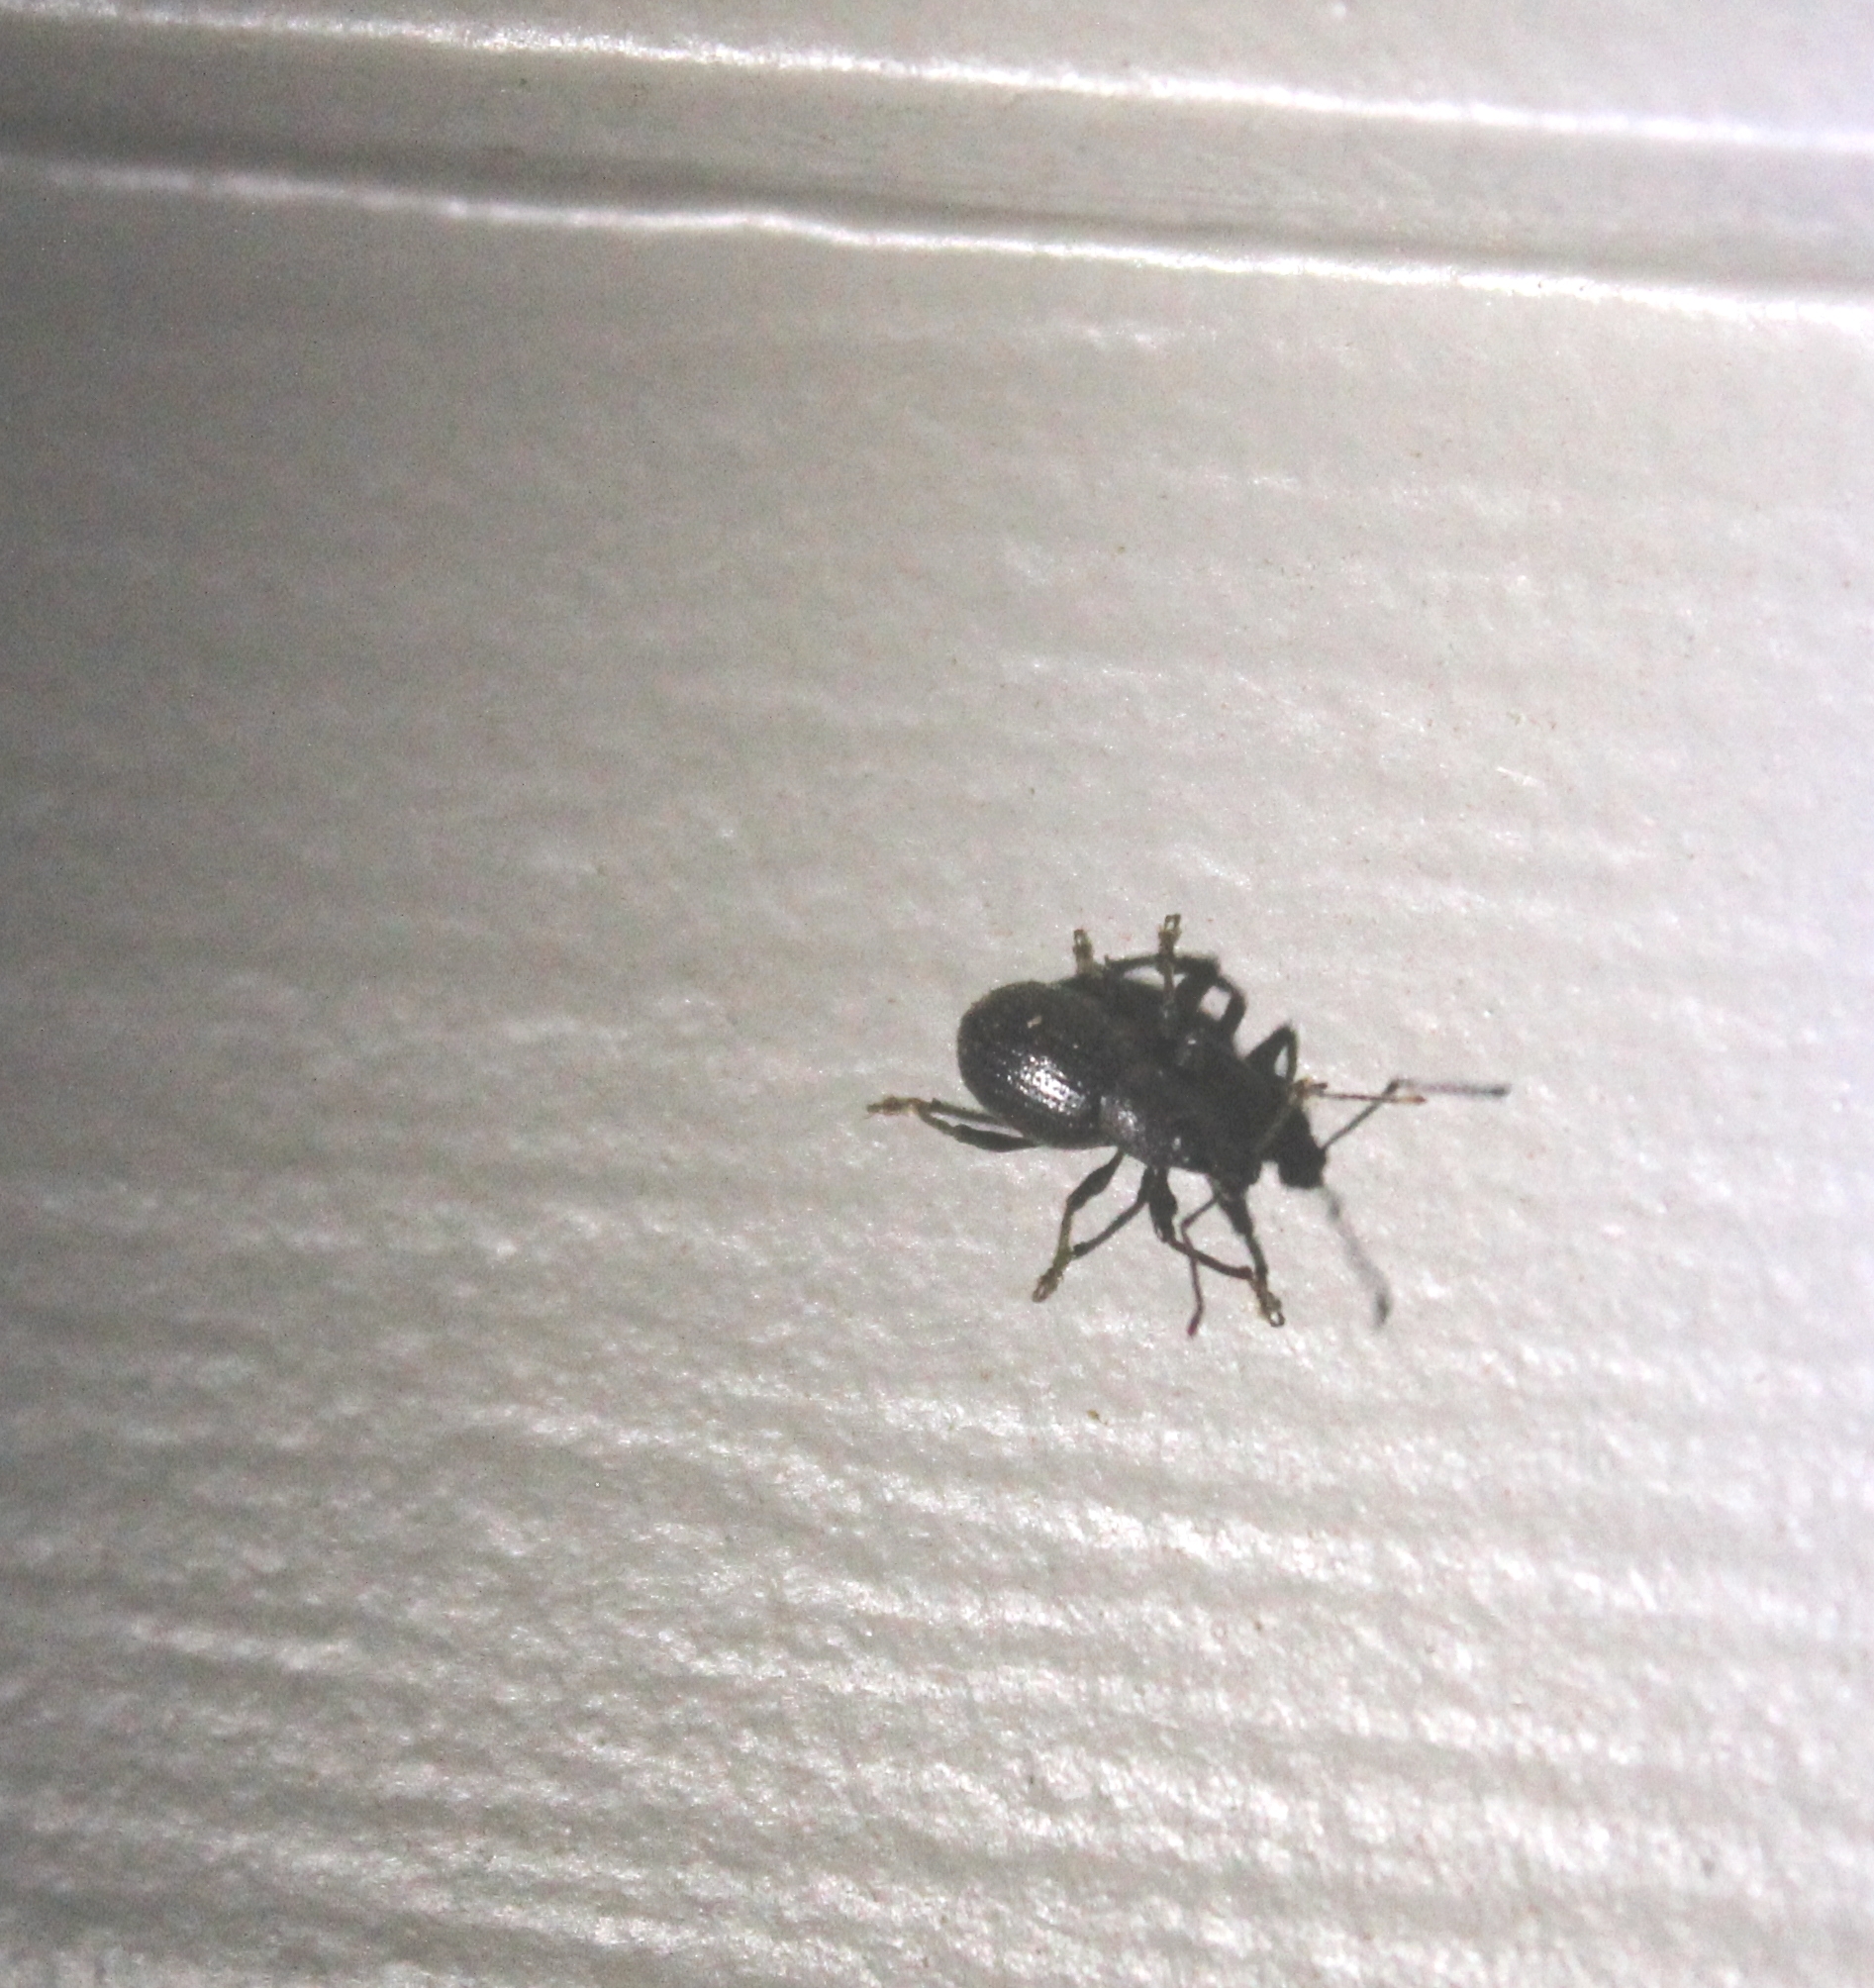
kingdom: Animalia
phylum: Arthropoda
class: Insecta
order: Coleoptera
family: Curculionidae
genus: Otiorhynchus
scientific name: Otiorhynchus meridionalis
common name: Weevil
